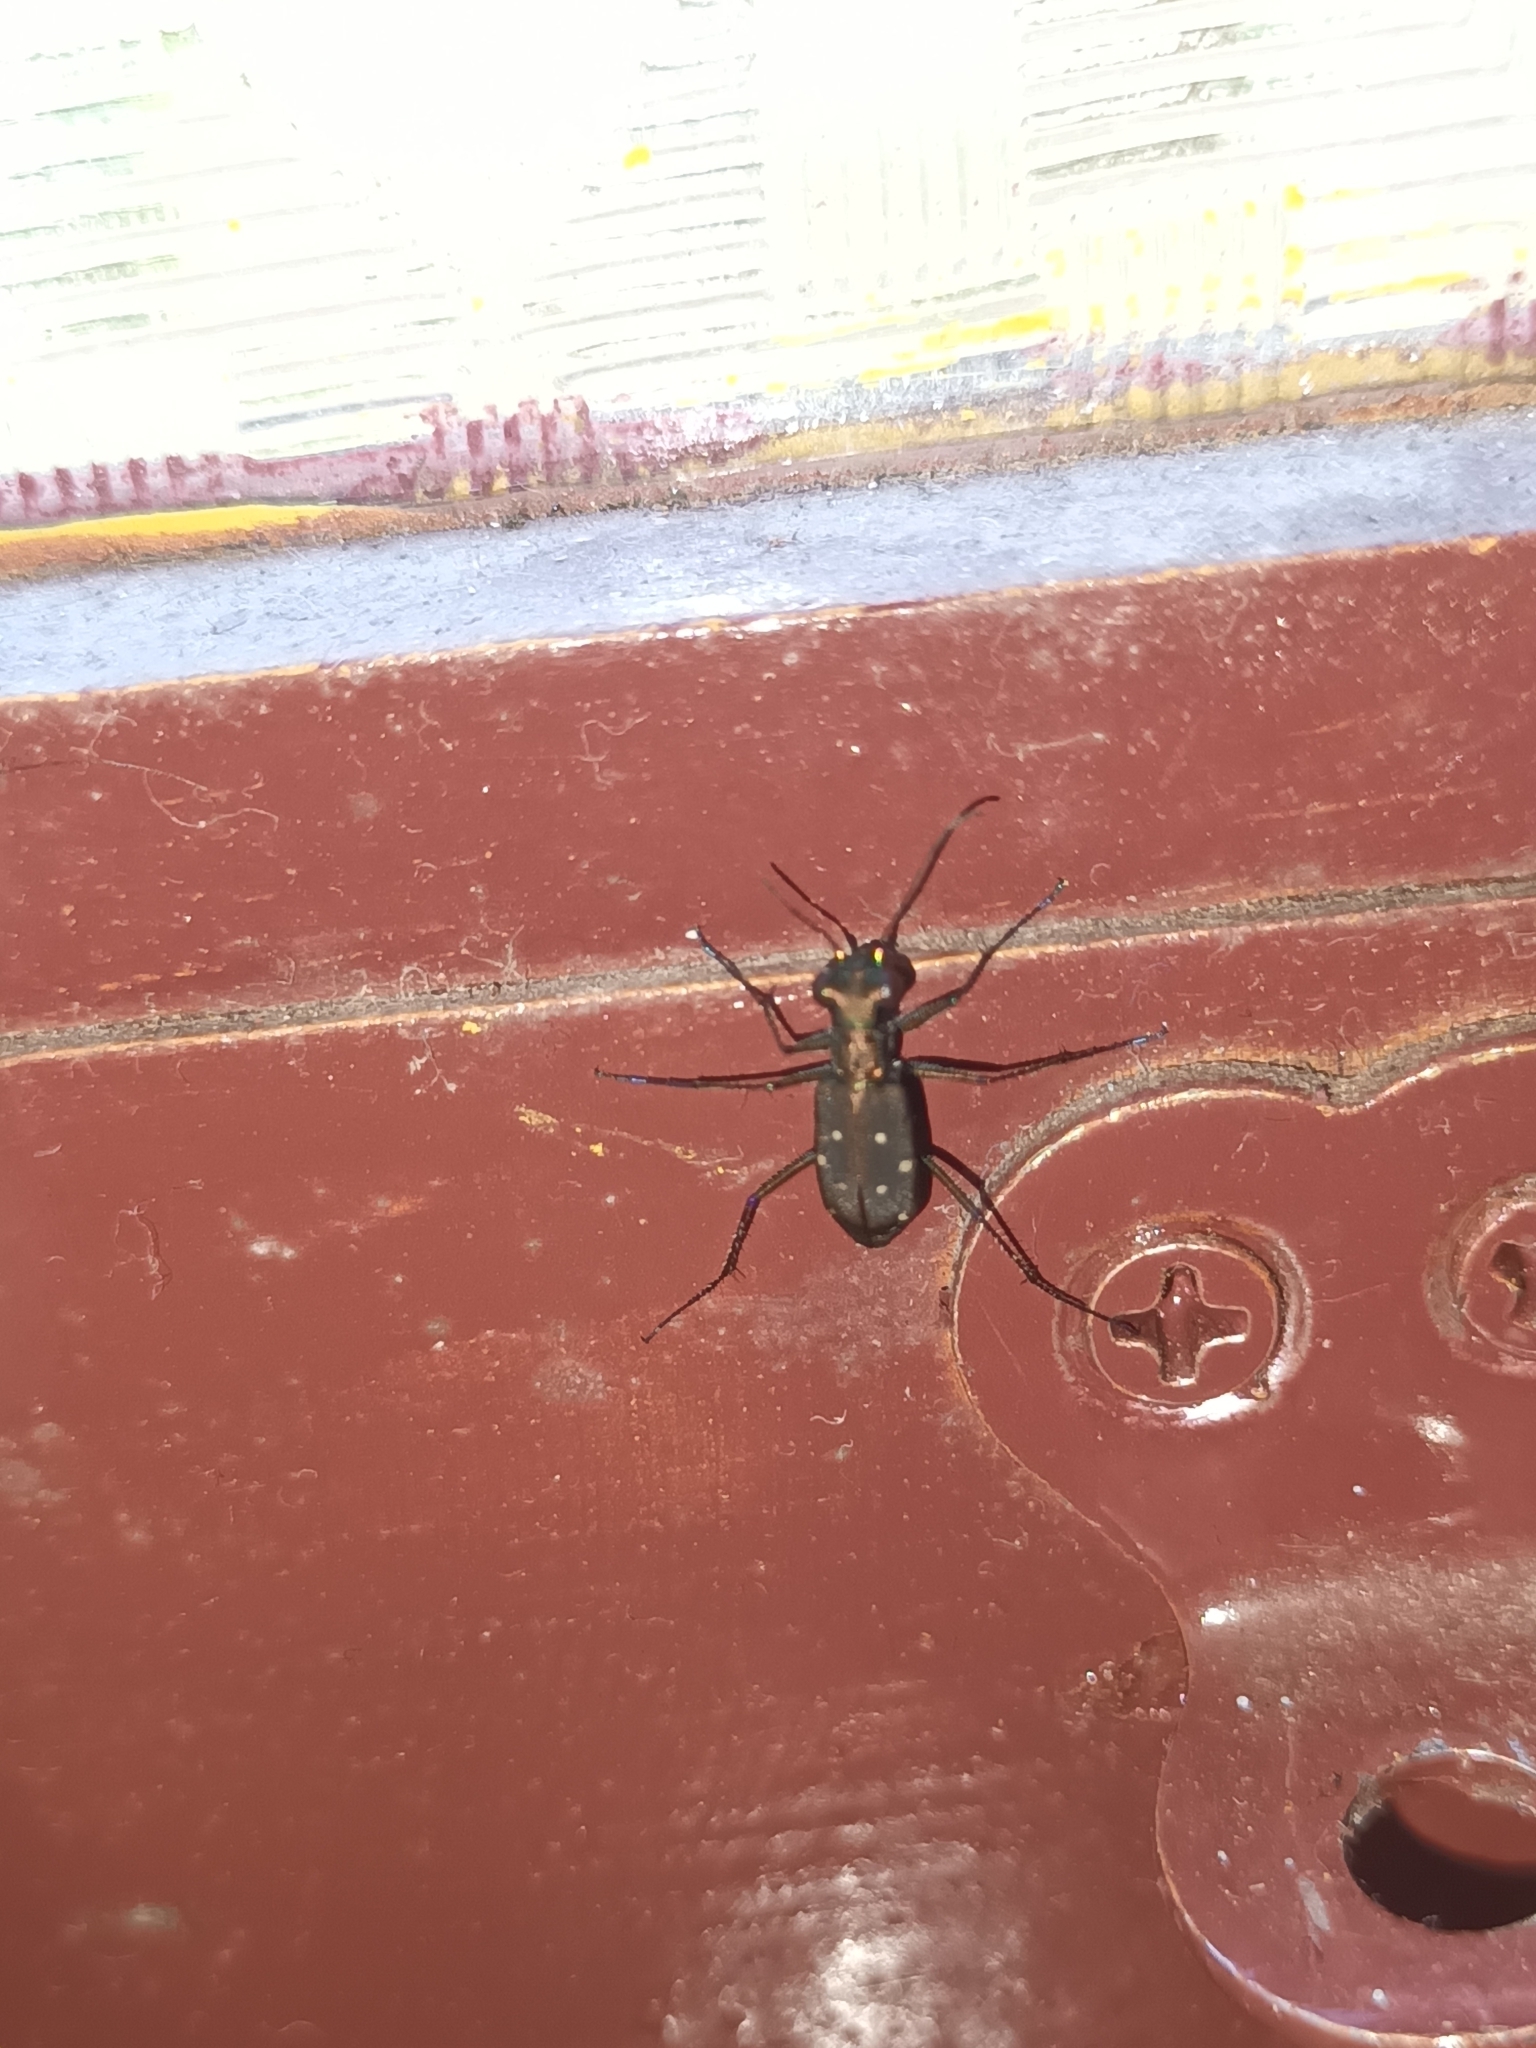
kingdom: Animalia
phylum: Arthropoda
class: Insecta
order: Coleoptera
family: Carabidae
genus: Cylindera
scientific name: Cylindera labioaenea
